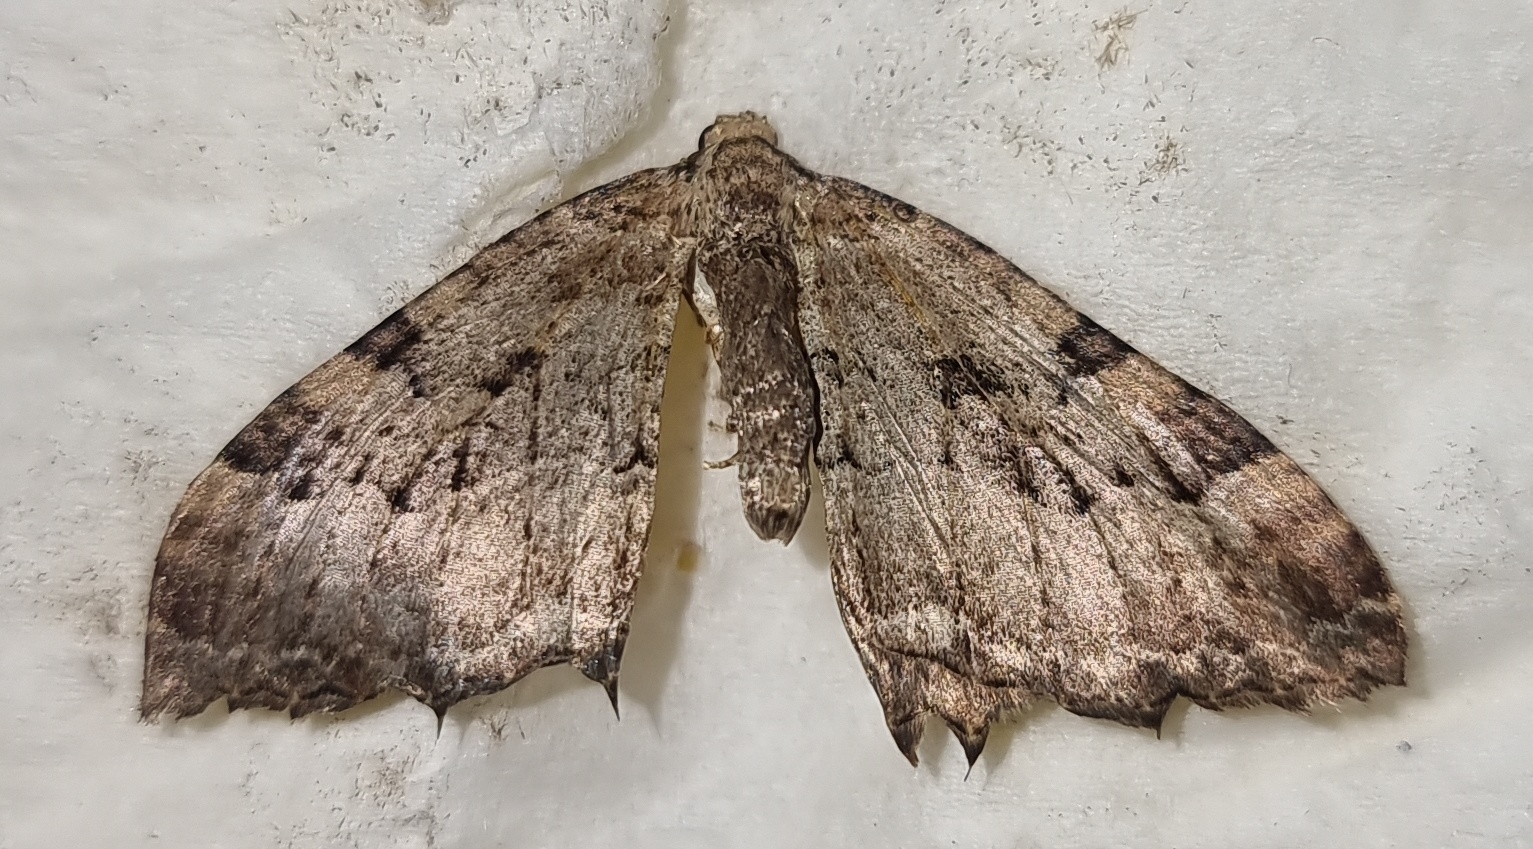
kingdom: Animalia
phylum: Arthropoda
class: Insecta
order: Lepidoptera
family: Geometridae
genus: Rheumaptera
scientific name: Rheumaptera Hydria cervinalis
